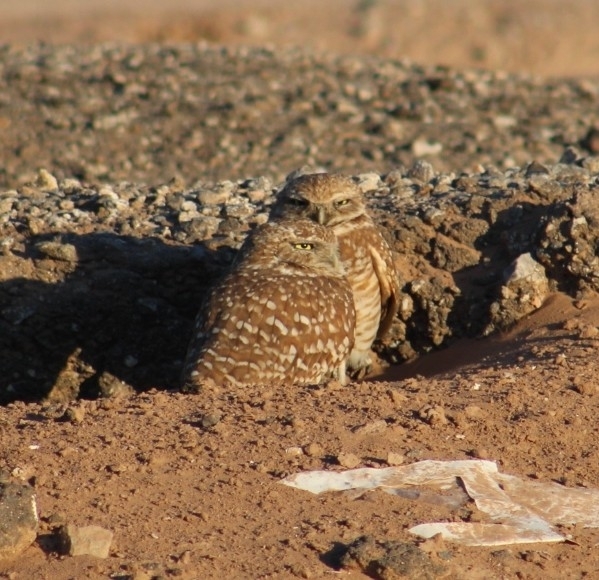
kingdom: Animalia
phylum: Chordata
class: Aves
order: Strigiformes
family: Strigidae
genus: Athene
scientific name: Athene cunicularia
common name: Burrowing owl
